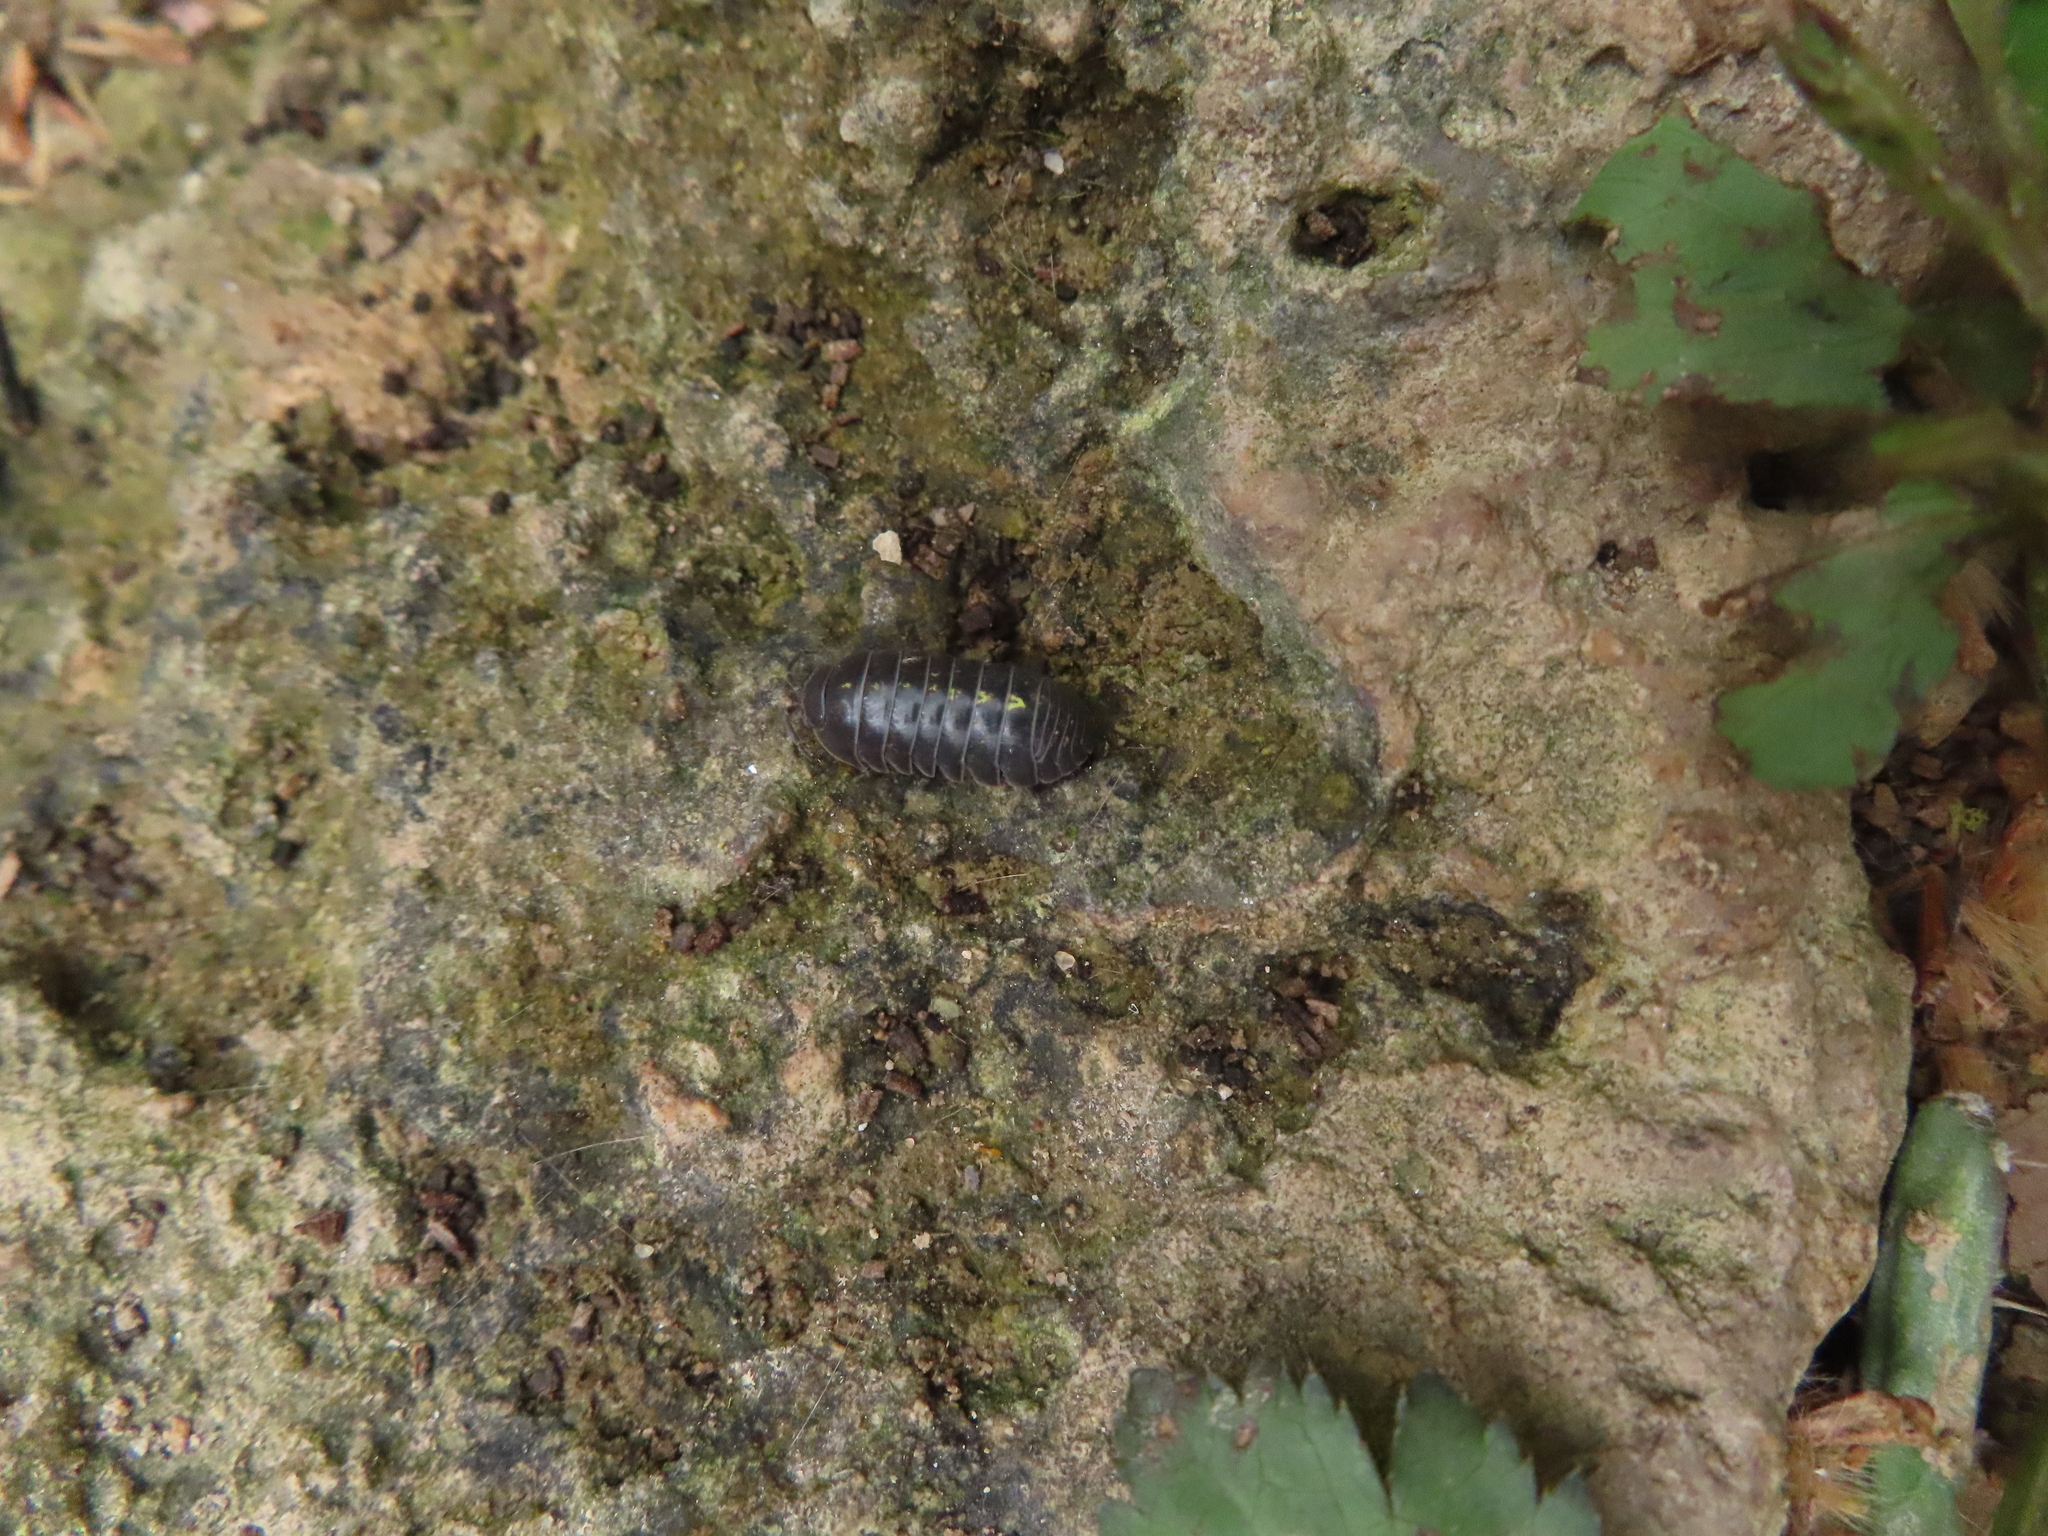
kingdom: Animalia
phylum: Arthropoda
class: Malacostraca
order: Isopoda
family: Armadillidiidae
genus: Armadillidium
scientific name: Armadillidium vulgare
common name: Common pill woodlouse
